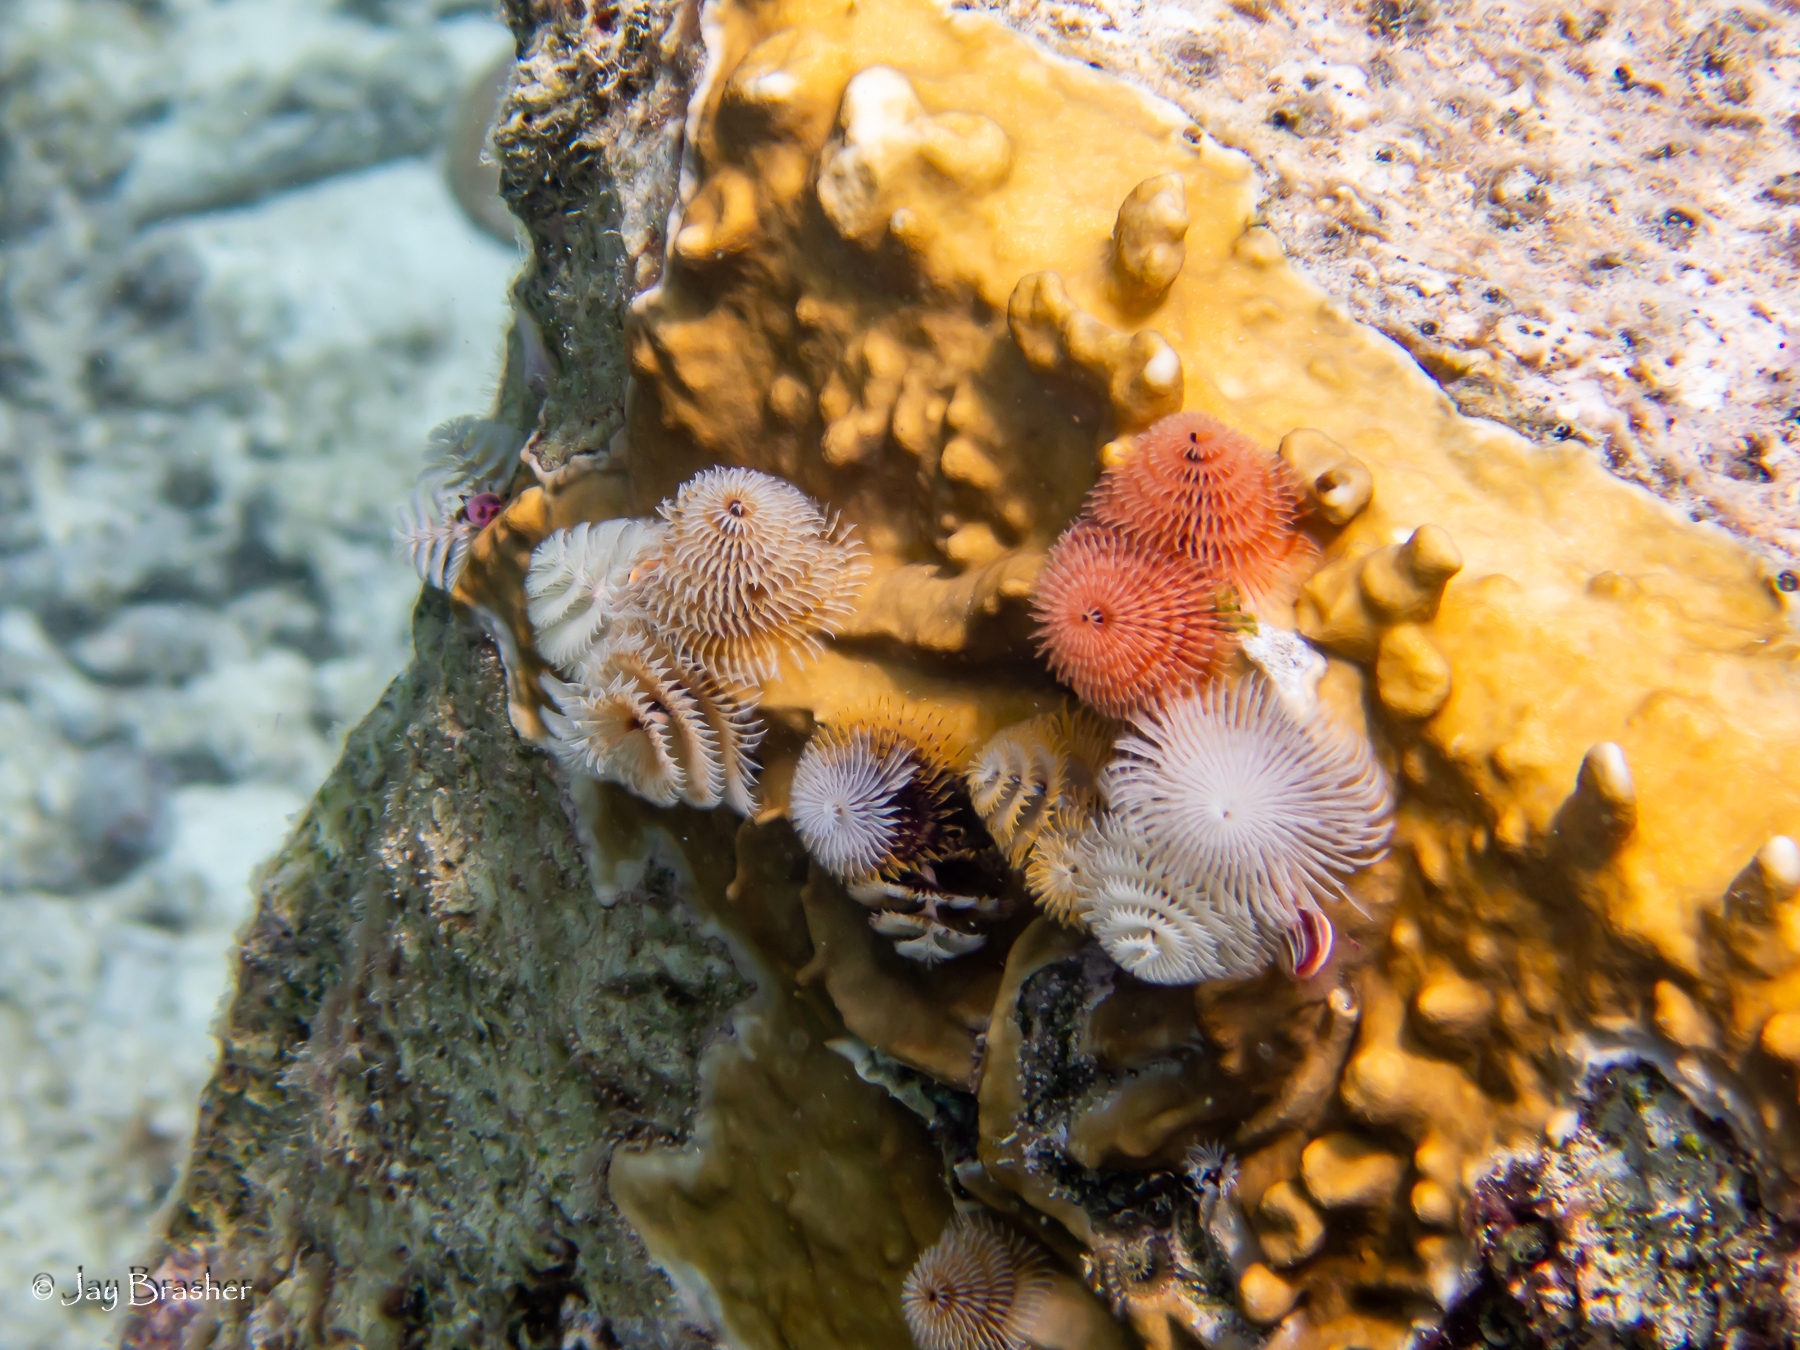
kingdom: Animalia
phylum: Annelida
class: Polychaeta
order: Sabellida
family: Serpulidae
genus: Spirobranchus
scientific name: Spirobranchus giganteus
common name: Christmas tree worm
